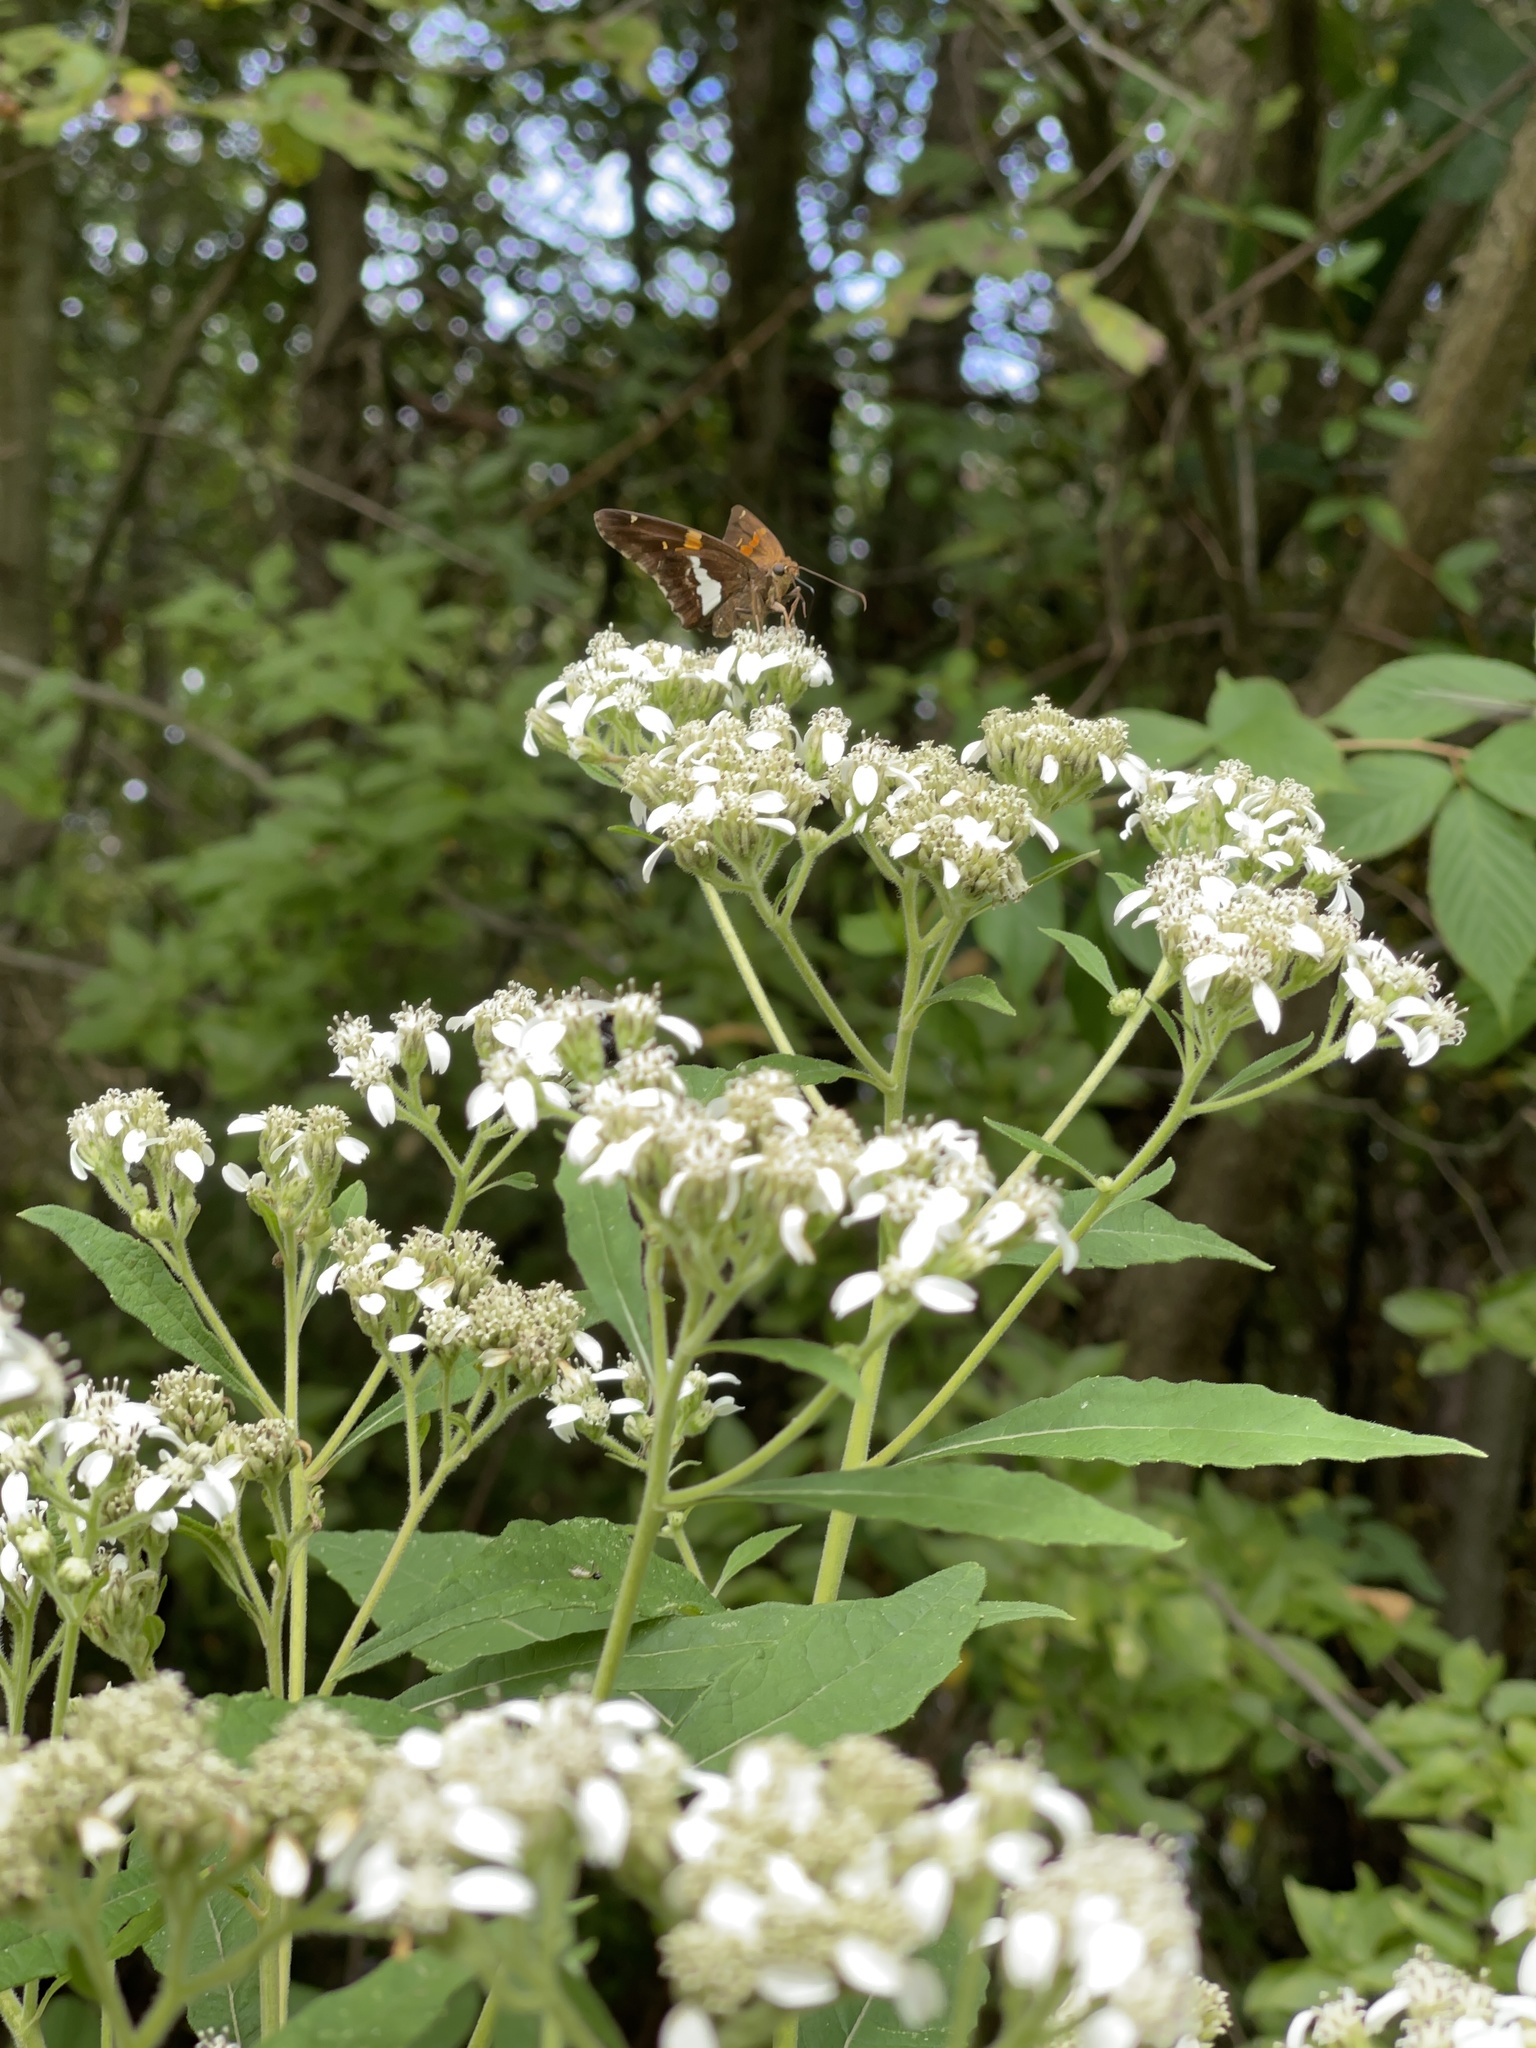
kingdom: Plantae
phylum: Tracheophyta
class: Magnoliopsida
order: Asterales
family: Asteraceae
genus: Verbesina
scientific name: Verbesina virginica
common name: Frostweed
